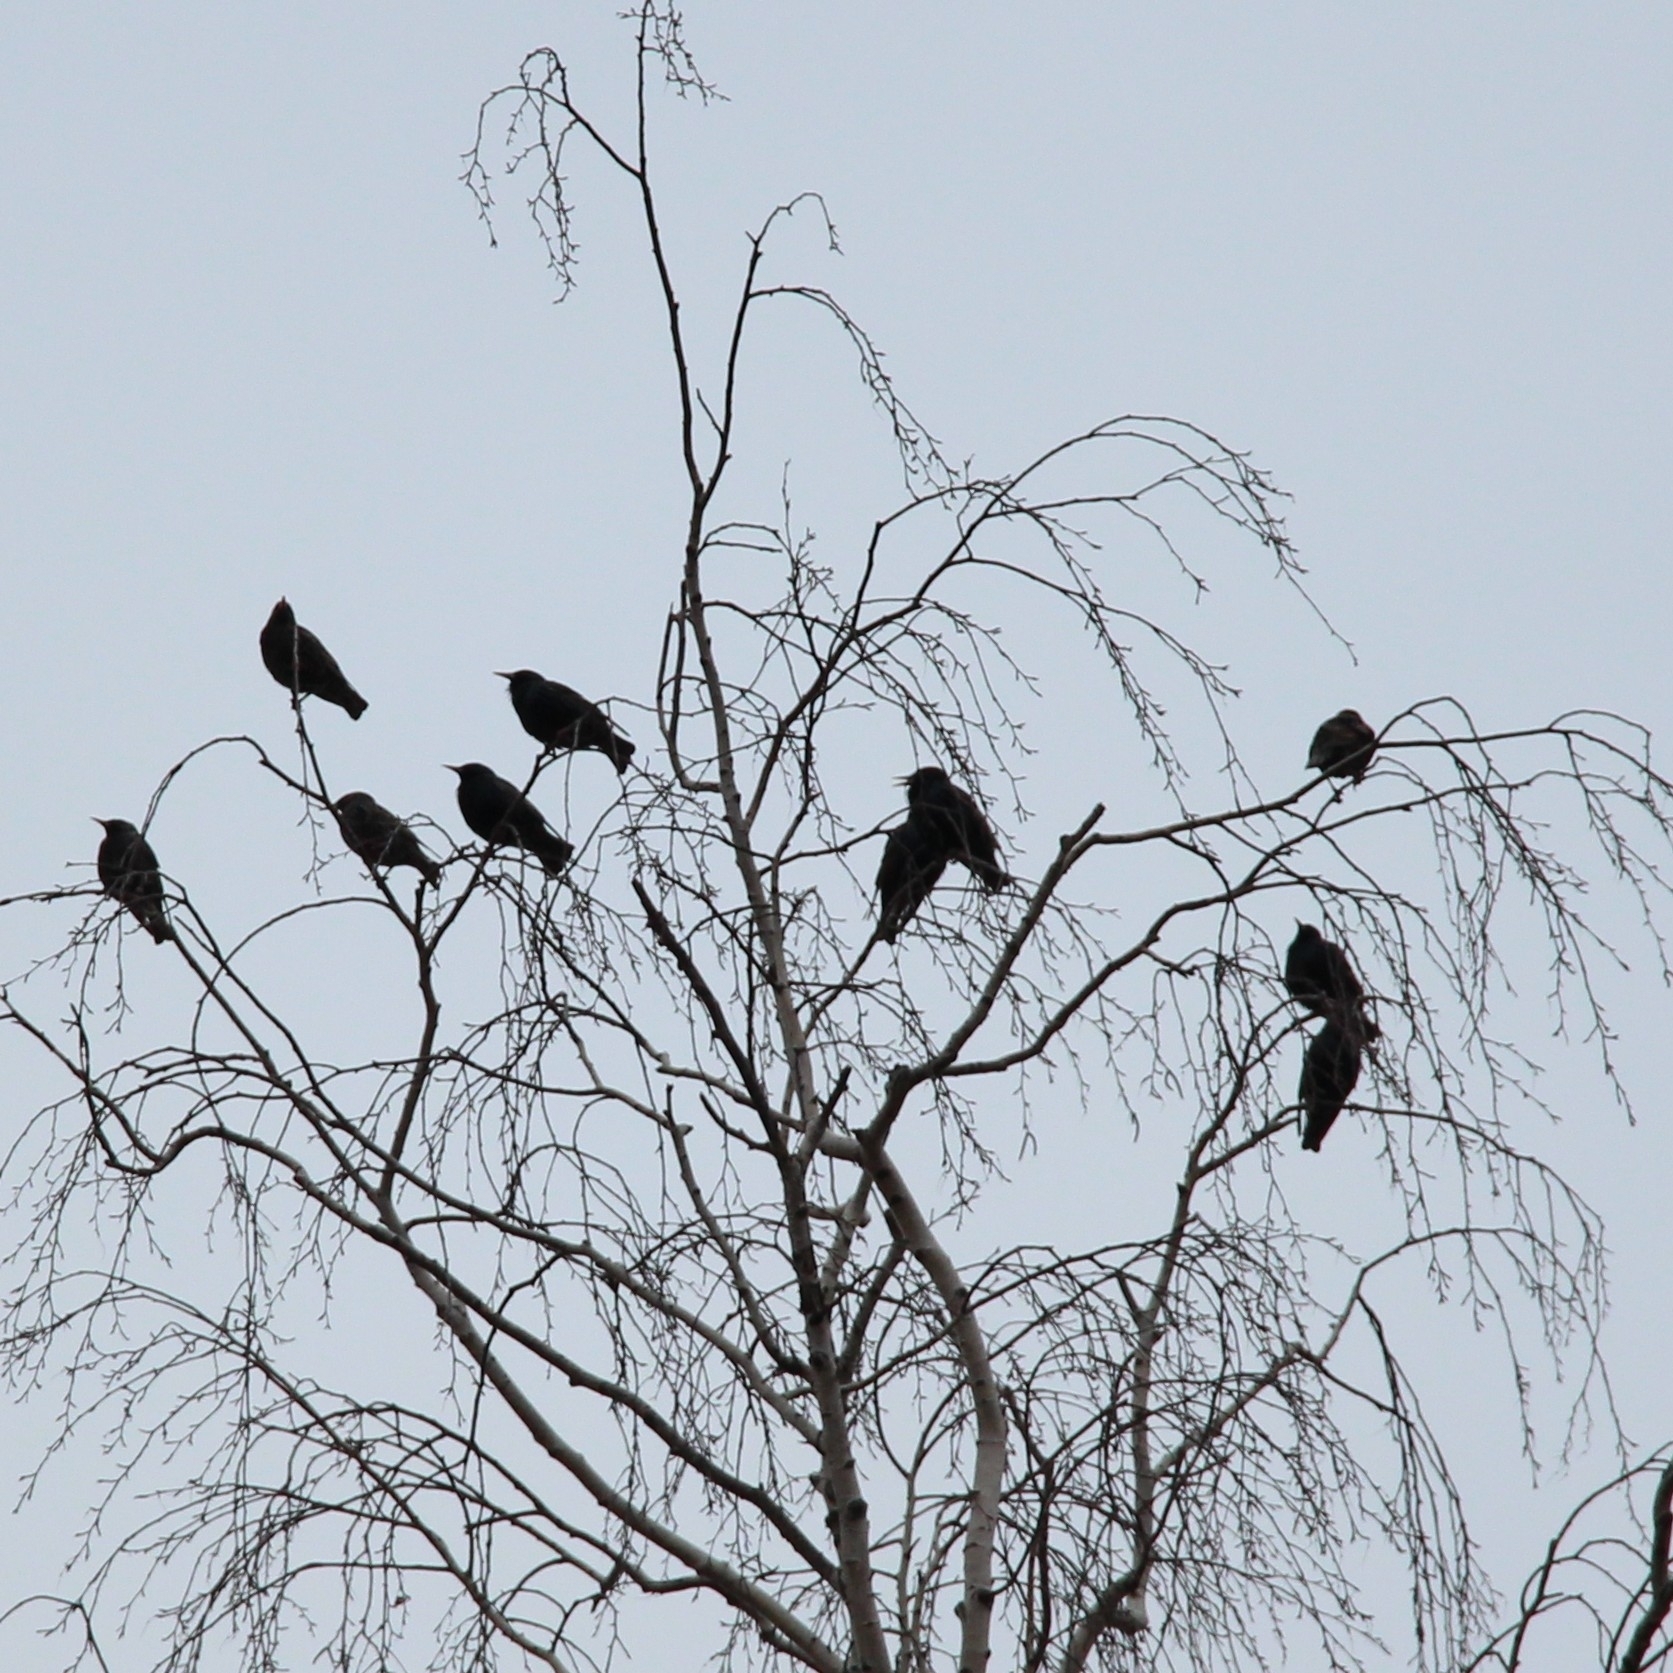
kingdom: Animalia
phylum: Chordata
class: Aves
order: Passeriformes
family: Sturnidae
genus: Sturnus
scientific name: Sturnus vulgaris
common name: Common starling
